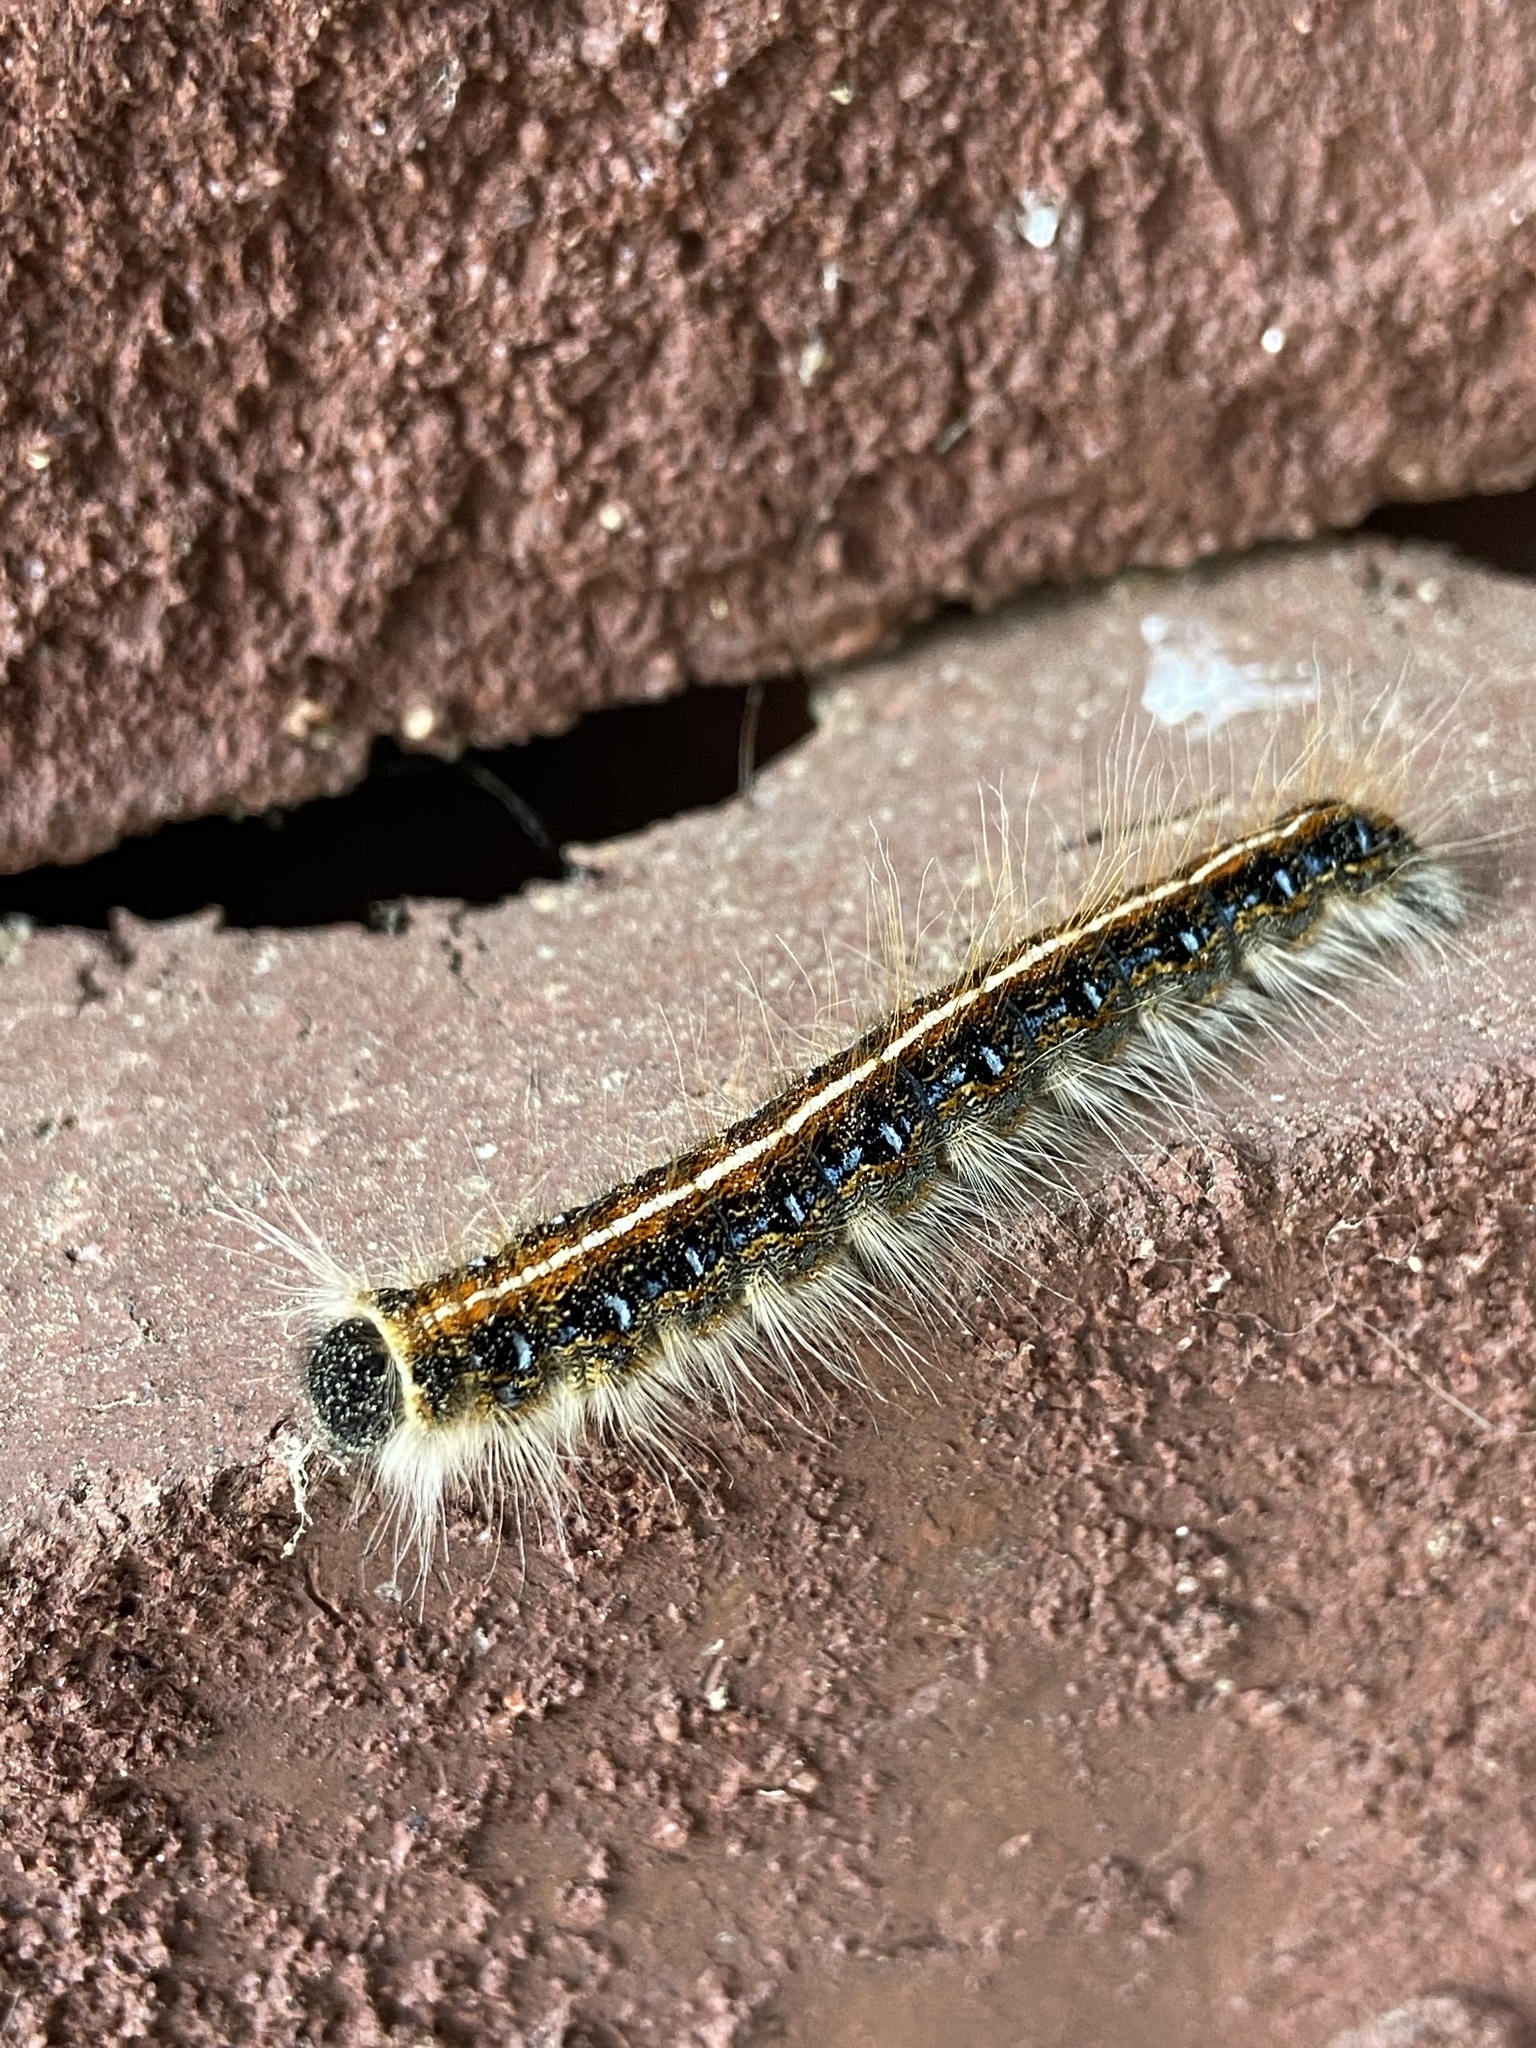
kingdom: Animalia
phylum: Arthropoda
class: Insecta
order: Lepidoptera
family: Lasiocampidae
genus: Malacosoma
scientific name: Malacosoma americana
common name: Eastern tent caterpillar moth
